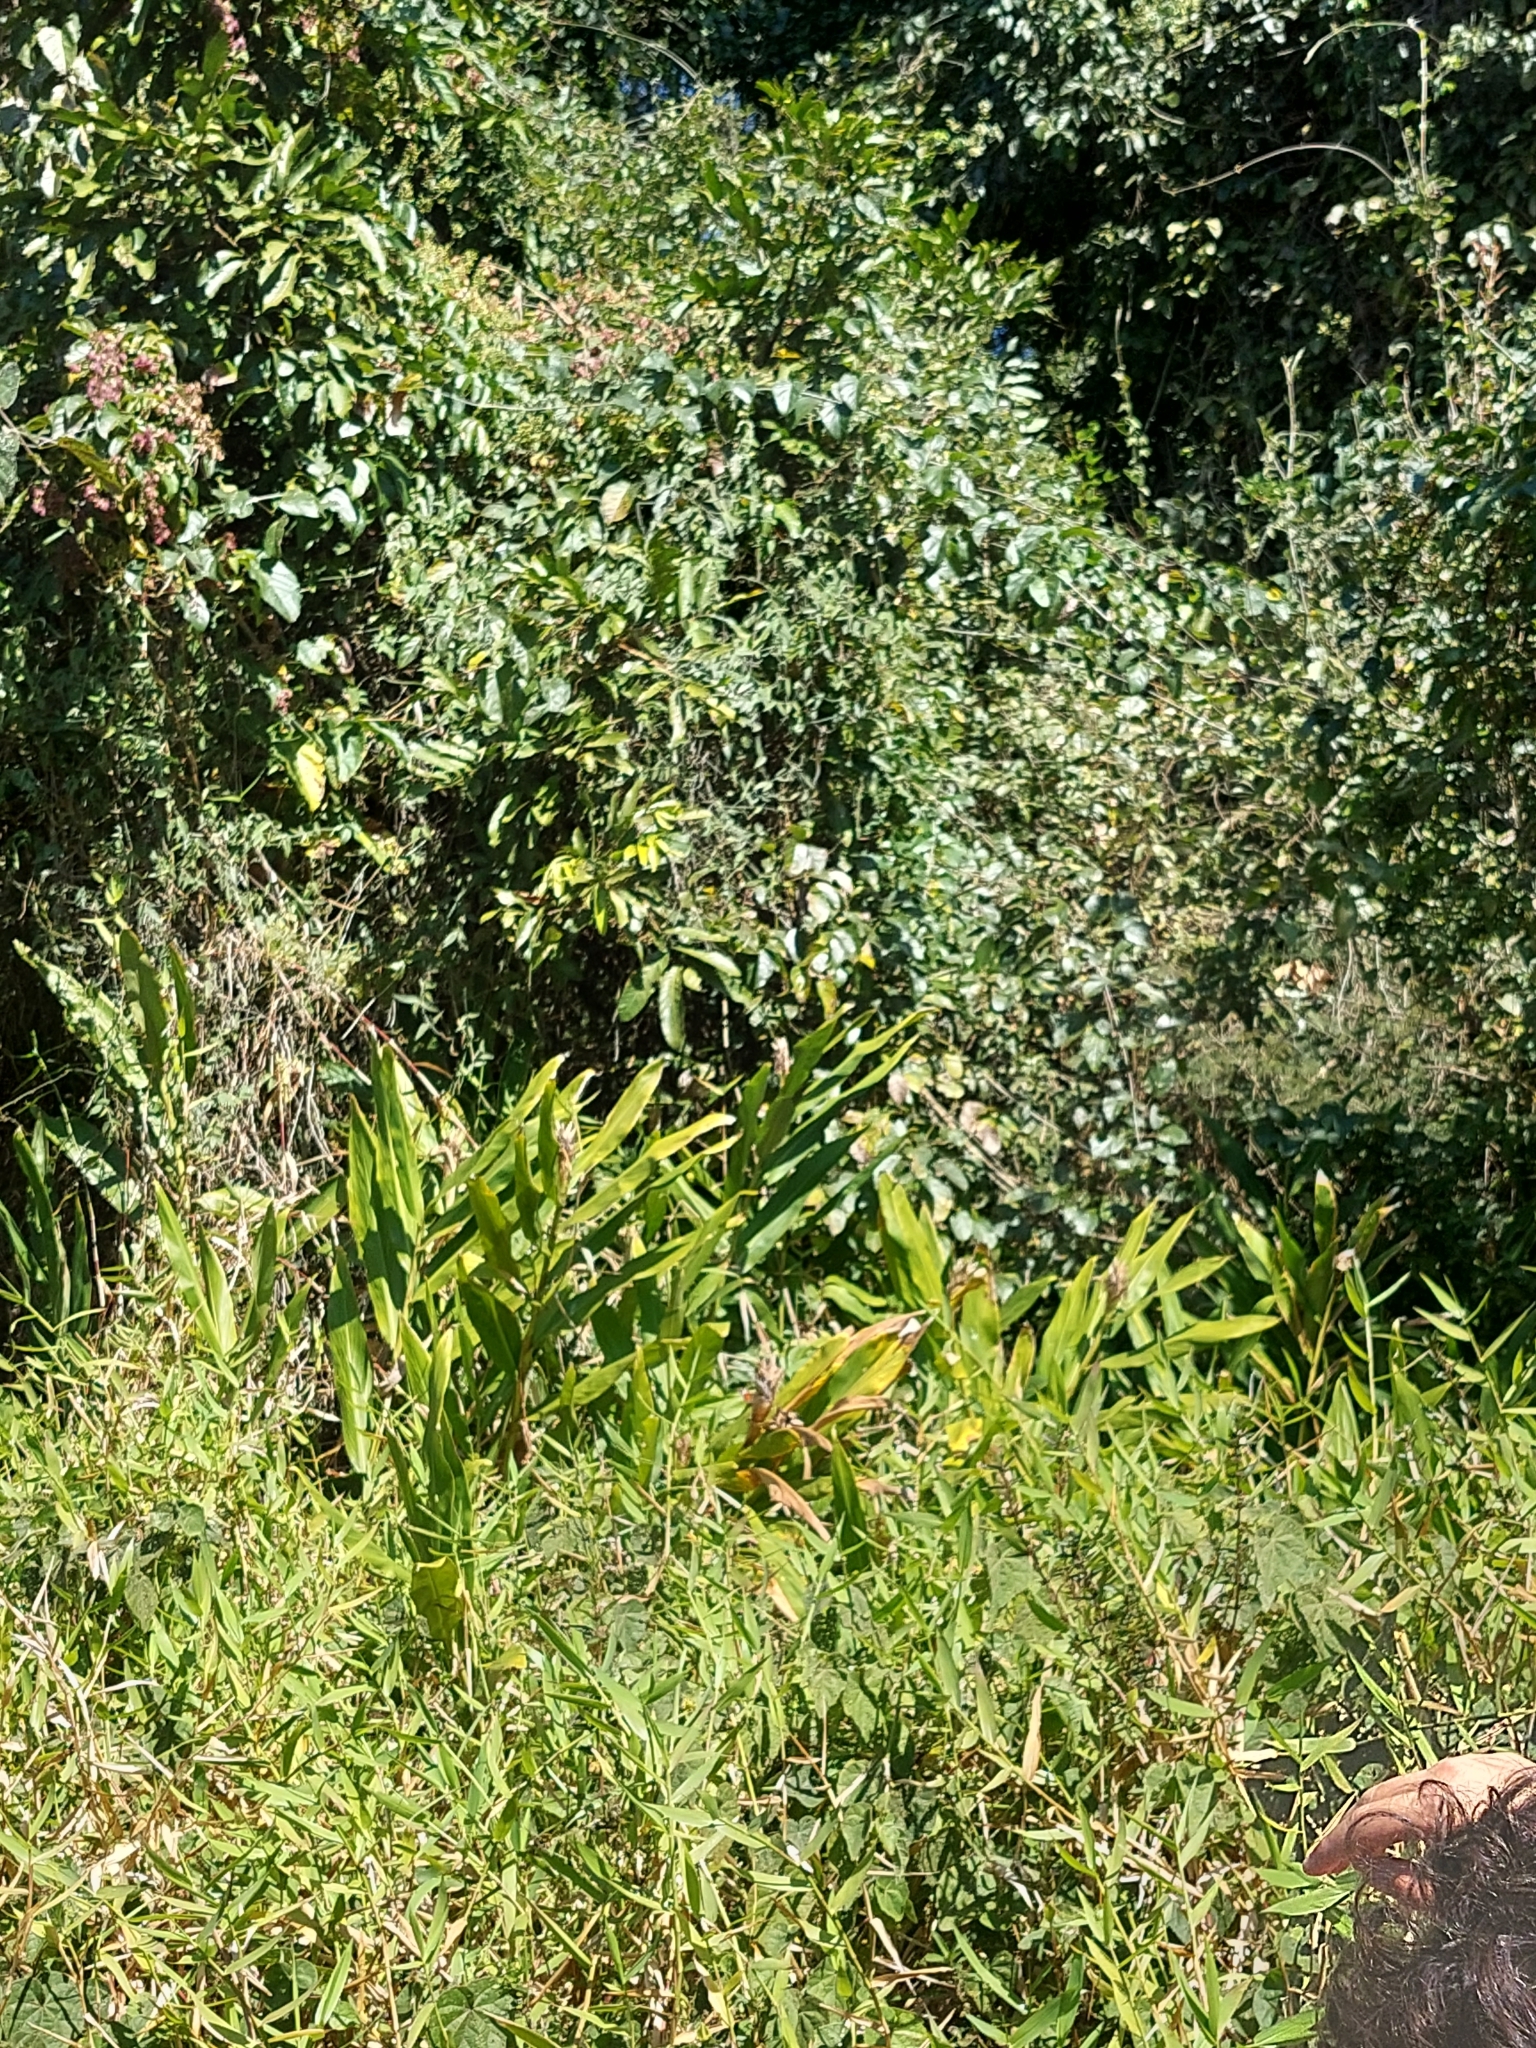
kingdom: Plantae
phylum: Tracheophyta
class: Liliopsida
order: Zingiberales
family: Zingiberaceae
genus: Hedychium
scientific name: Hedychium coronarium
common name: White garland-lily
